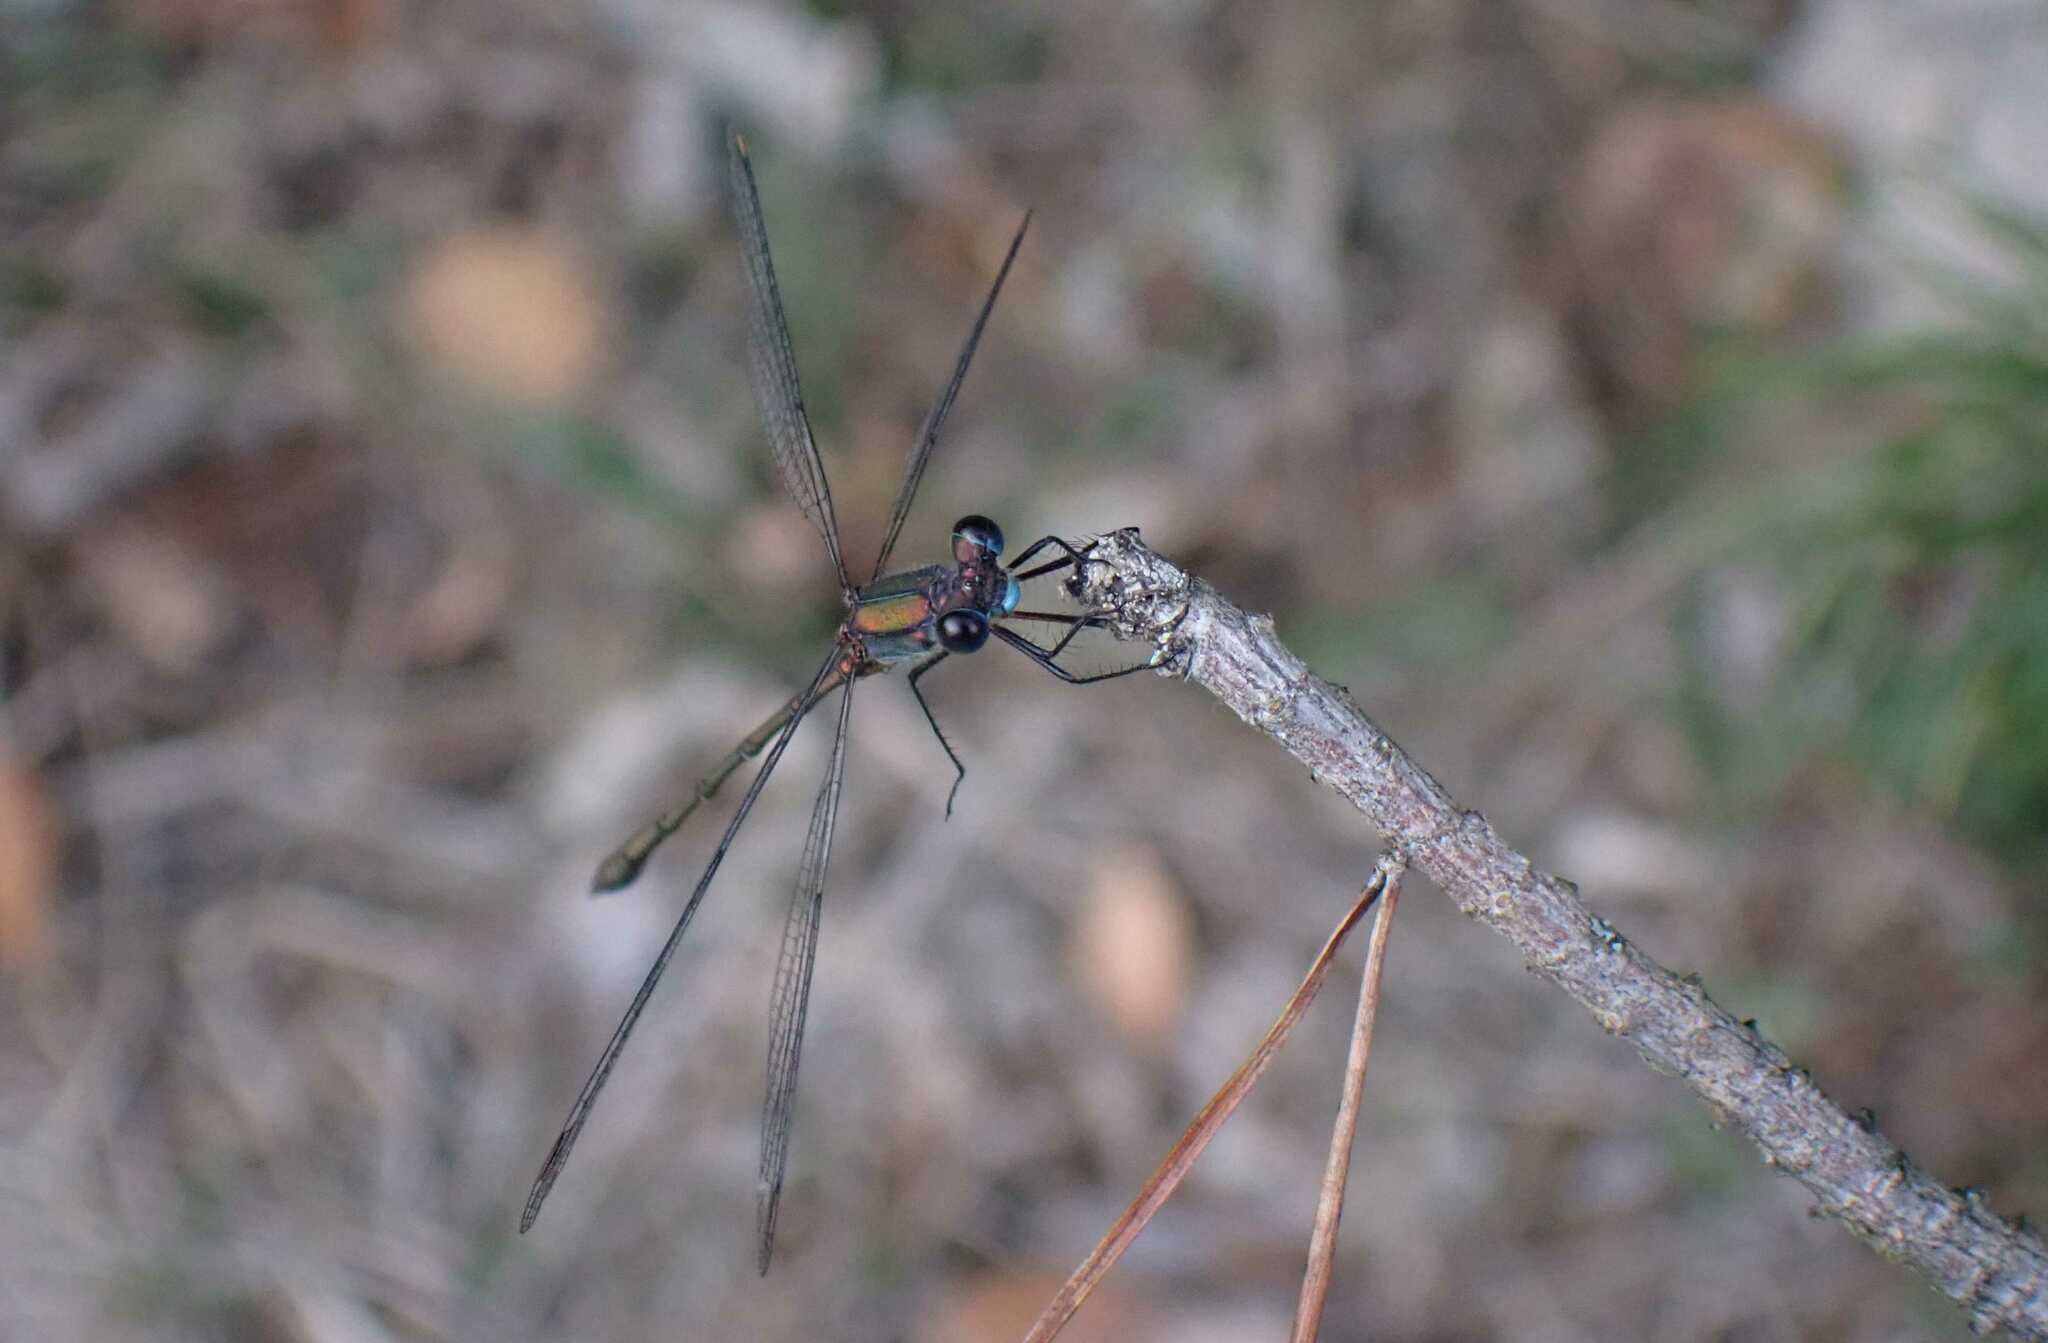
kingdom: Animalia
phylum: Arthropoda
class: Insecta
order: Odonata
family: Lestidae
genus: Chalcolestes
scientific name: Chalcolestes viridis
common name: Green emerald damselfly
